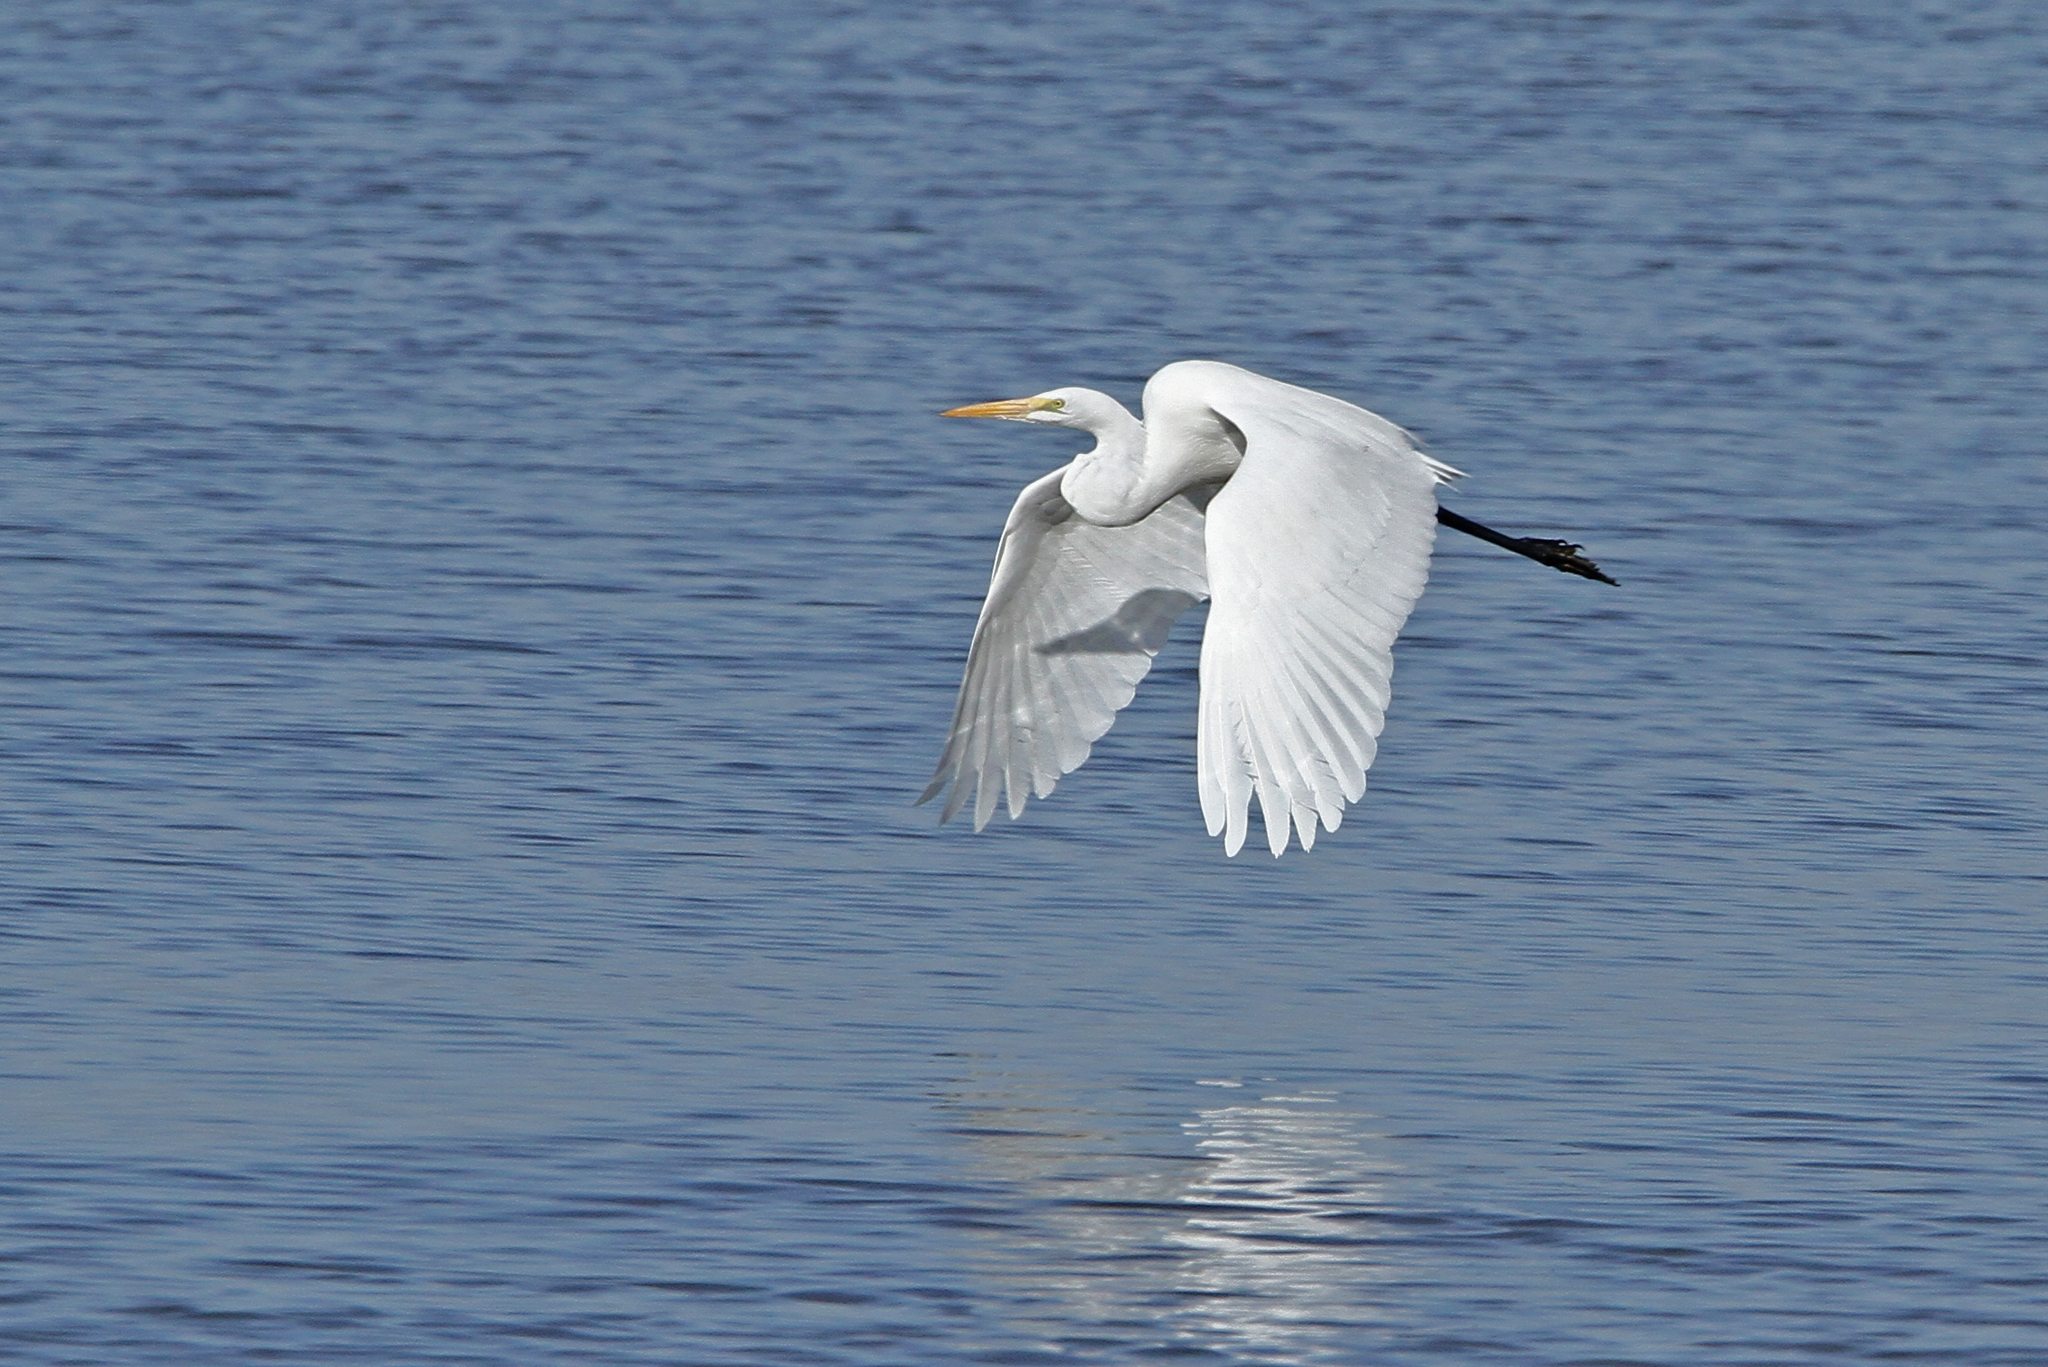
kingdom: Animalia
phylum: Chordata
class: Aves
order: Pelecaniformes
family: Ardeidae
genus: Ardea
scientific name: Ardea alba
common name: Great egret
